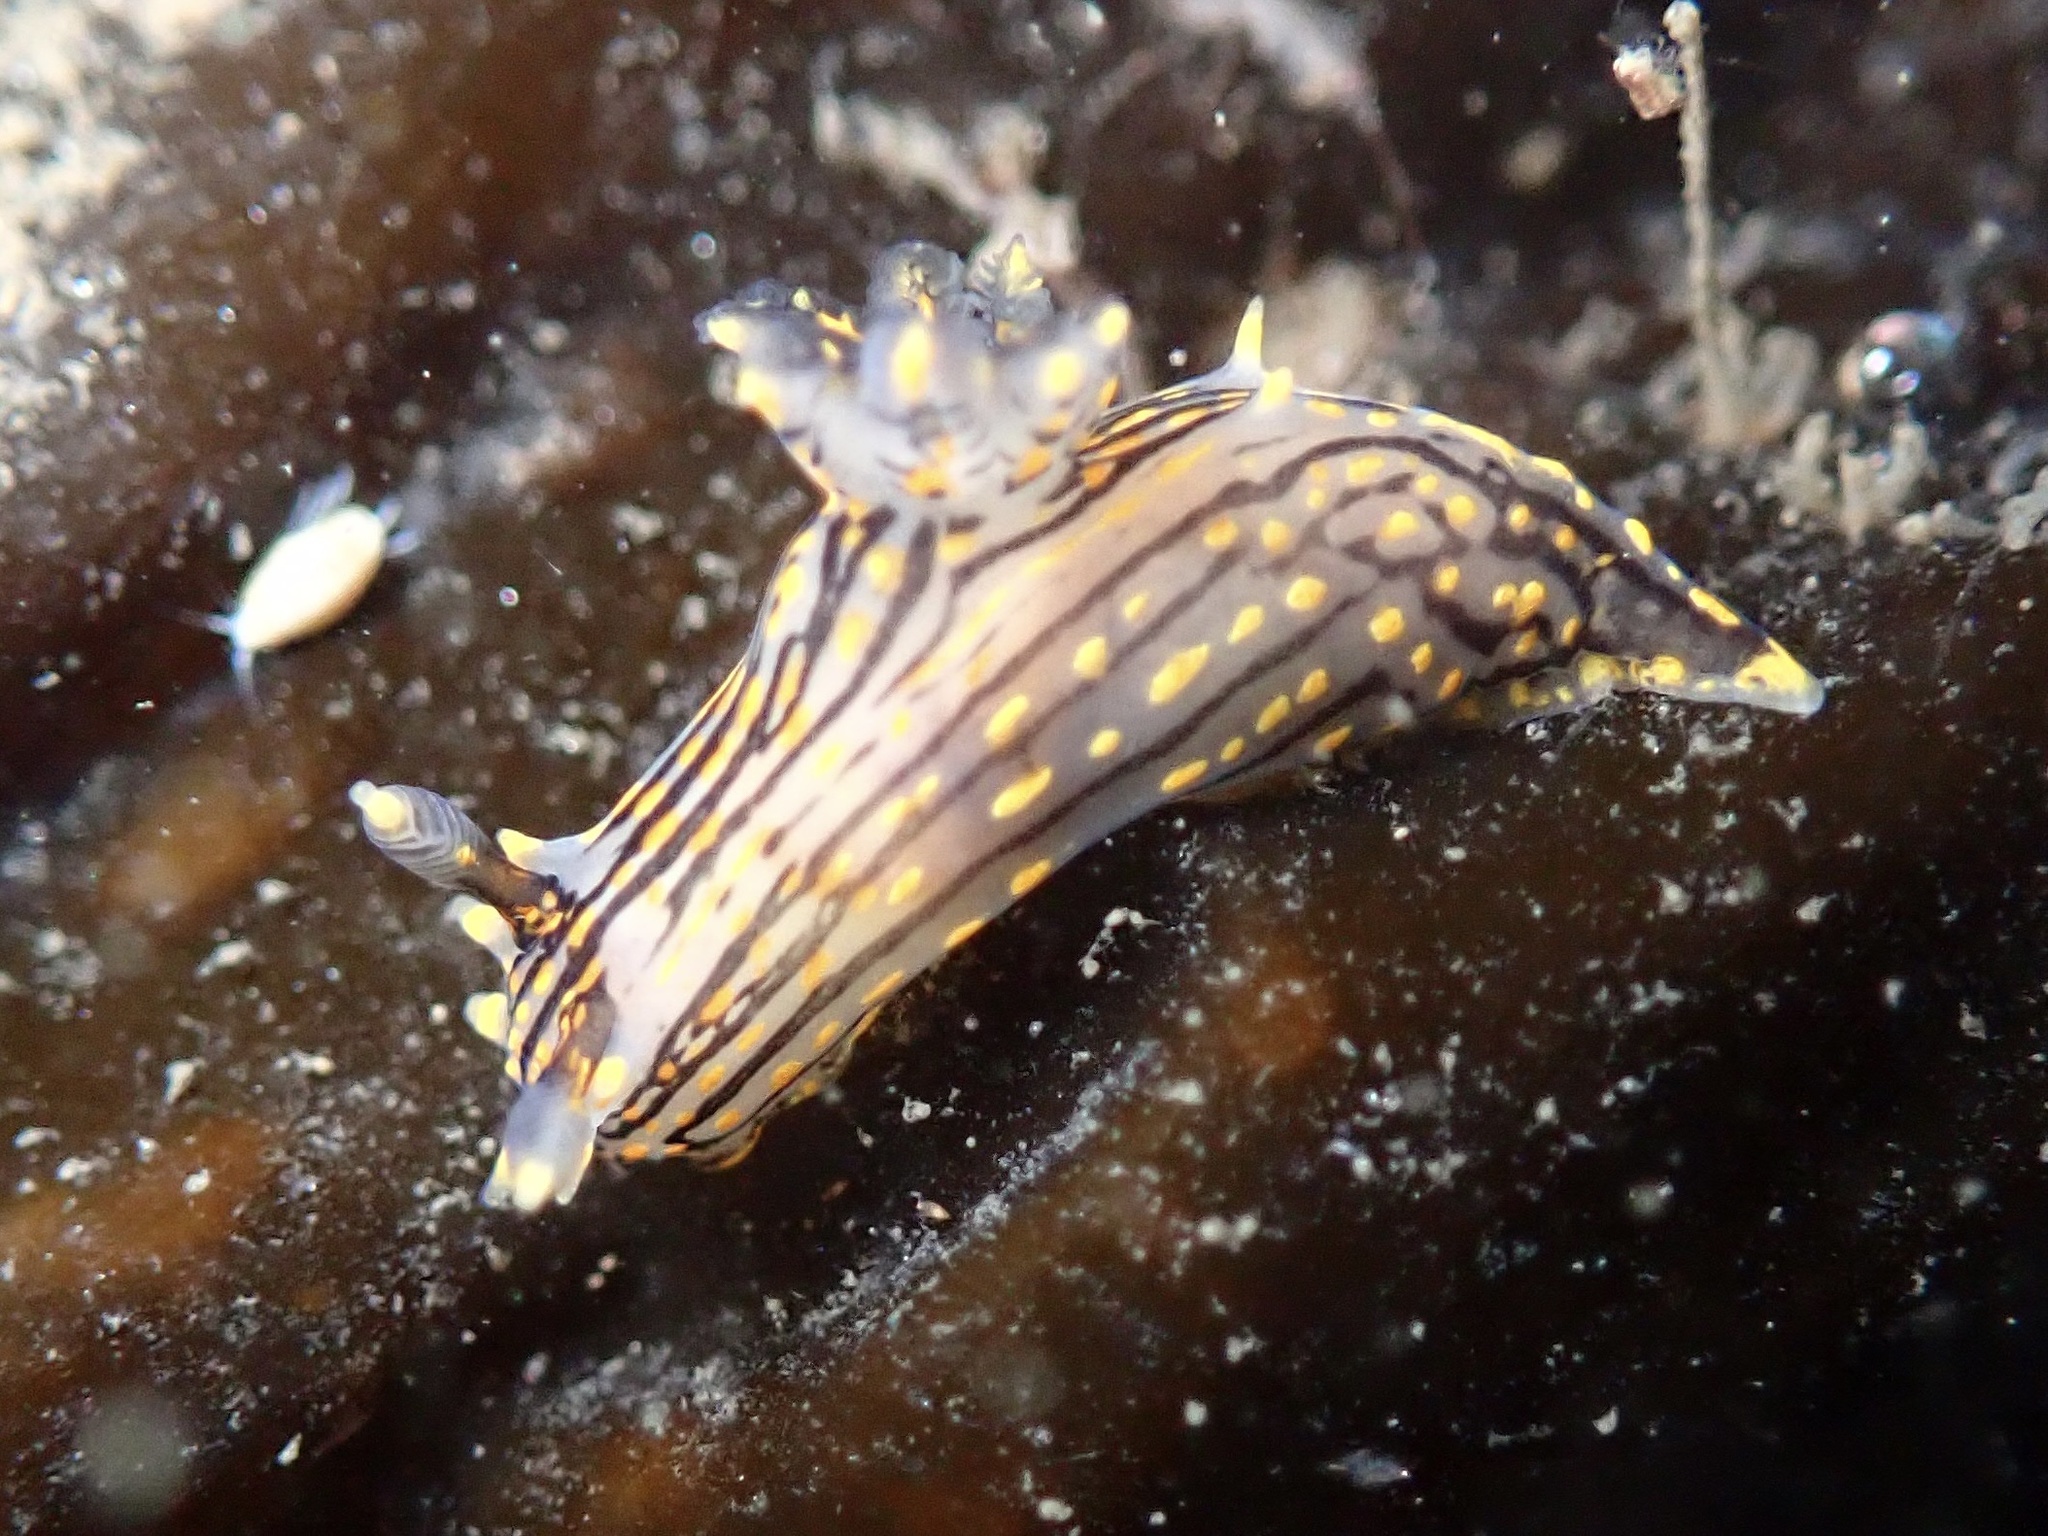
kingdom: Animalia
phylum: Mollusca
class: Gastropoda
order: Nudibranchia
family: Polyceridae
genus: Polycera
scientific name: Polycera atra
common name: Orange-spike polycera
